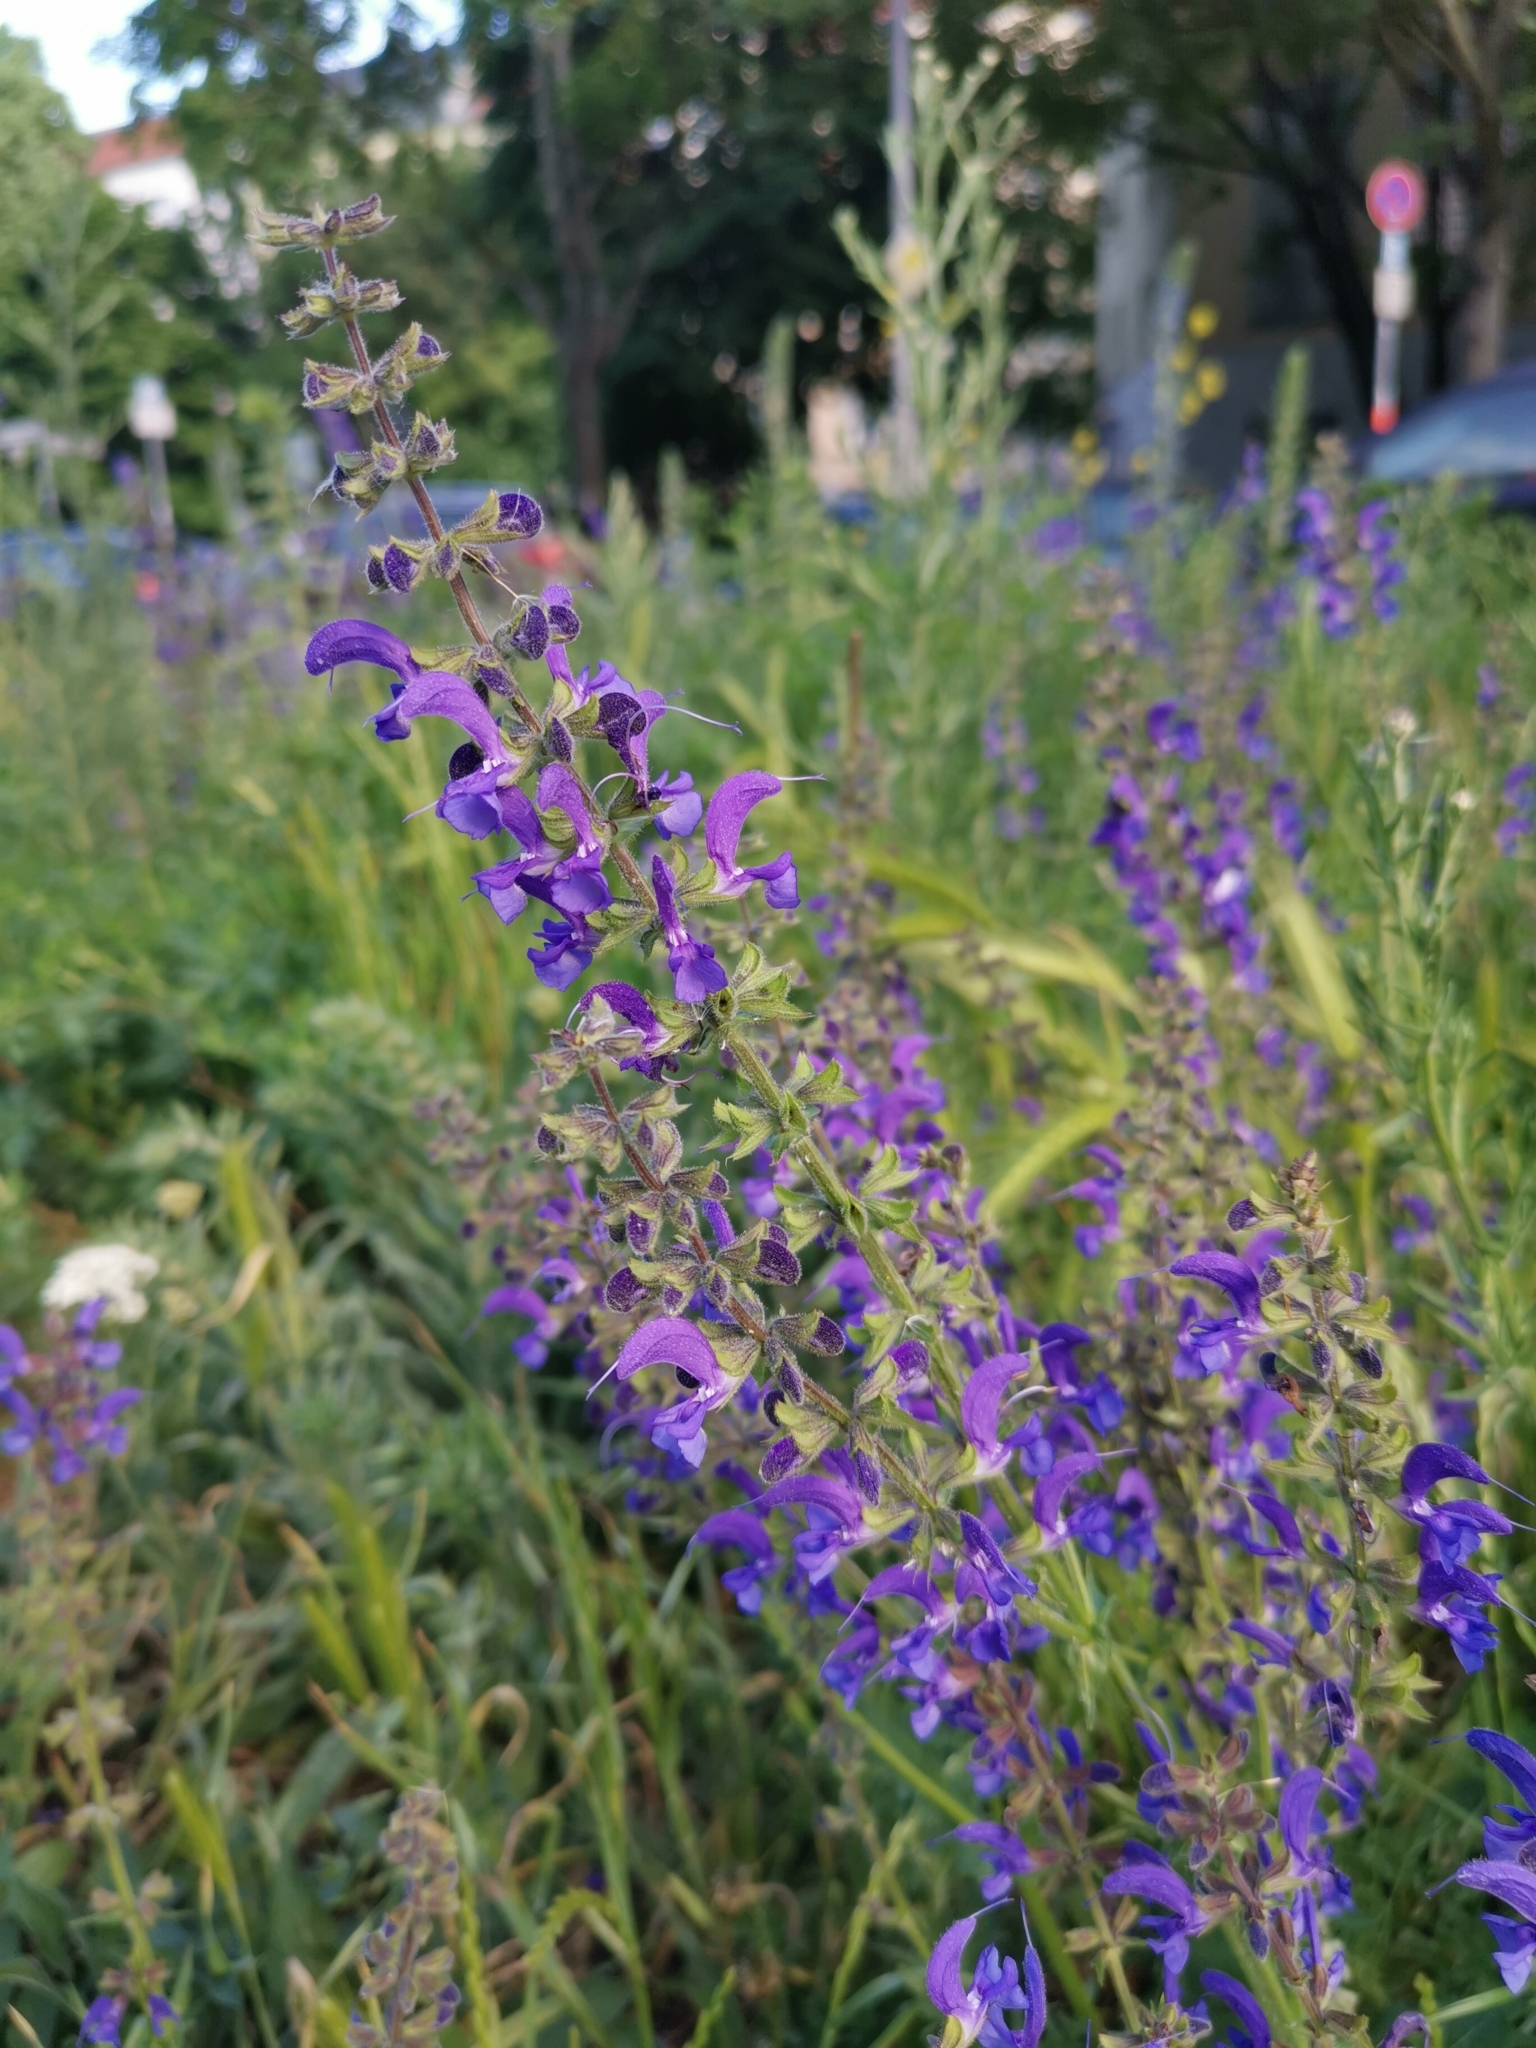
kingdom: Plantae
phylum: Tracheophyta
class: Magnoliopsida
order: Lamiales
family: Lamiaceae
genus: Salvia
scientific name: Salvia pratensis
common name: Meadow sage
